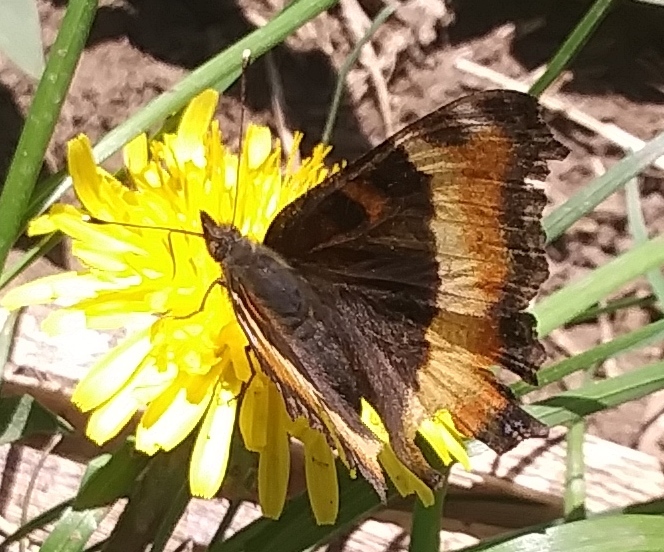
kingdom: Animalia
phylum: Arthropoda
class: Insecta
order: Lepidoptera
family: Nymphalidae
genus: Aglais
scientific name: Aglais milberti
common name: Milbert's tortoiseshell
